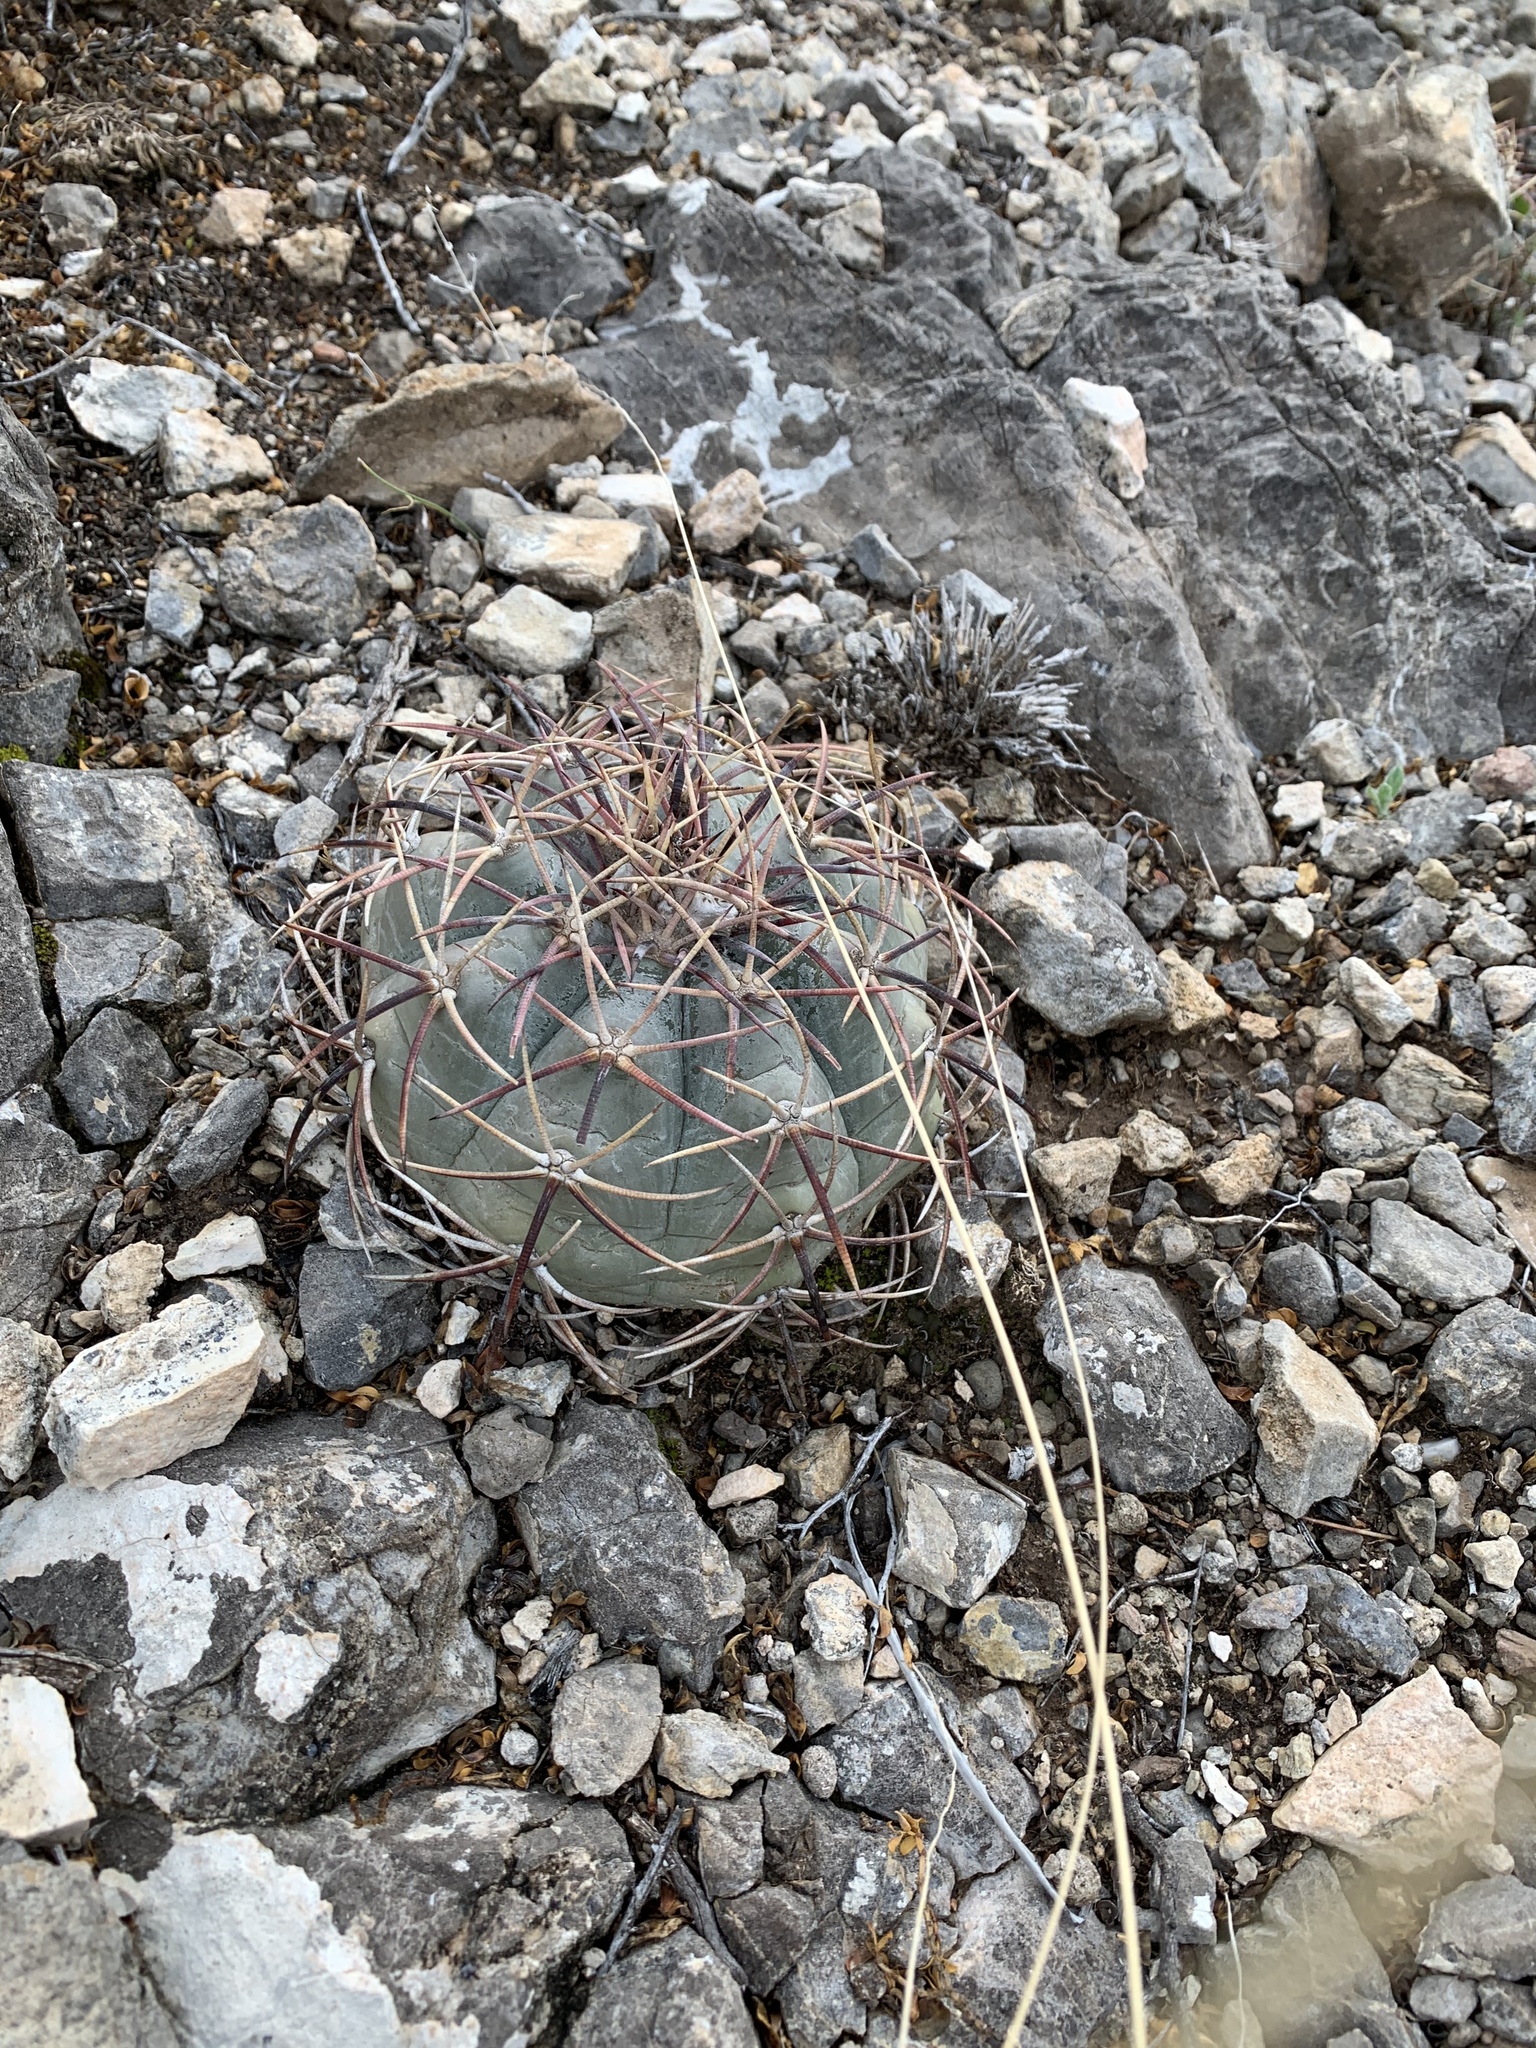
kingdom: Plantae
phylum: Tracheophyta
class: Magnoliopsida
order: Caryophyllales
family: Cactaceae
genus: Echinocactus
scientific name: Echinocactus horizonthalonius
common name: Devilshead
